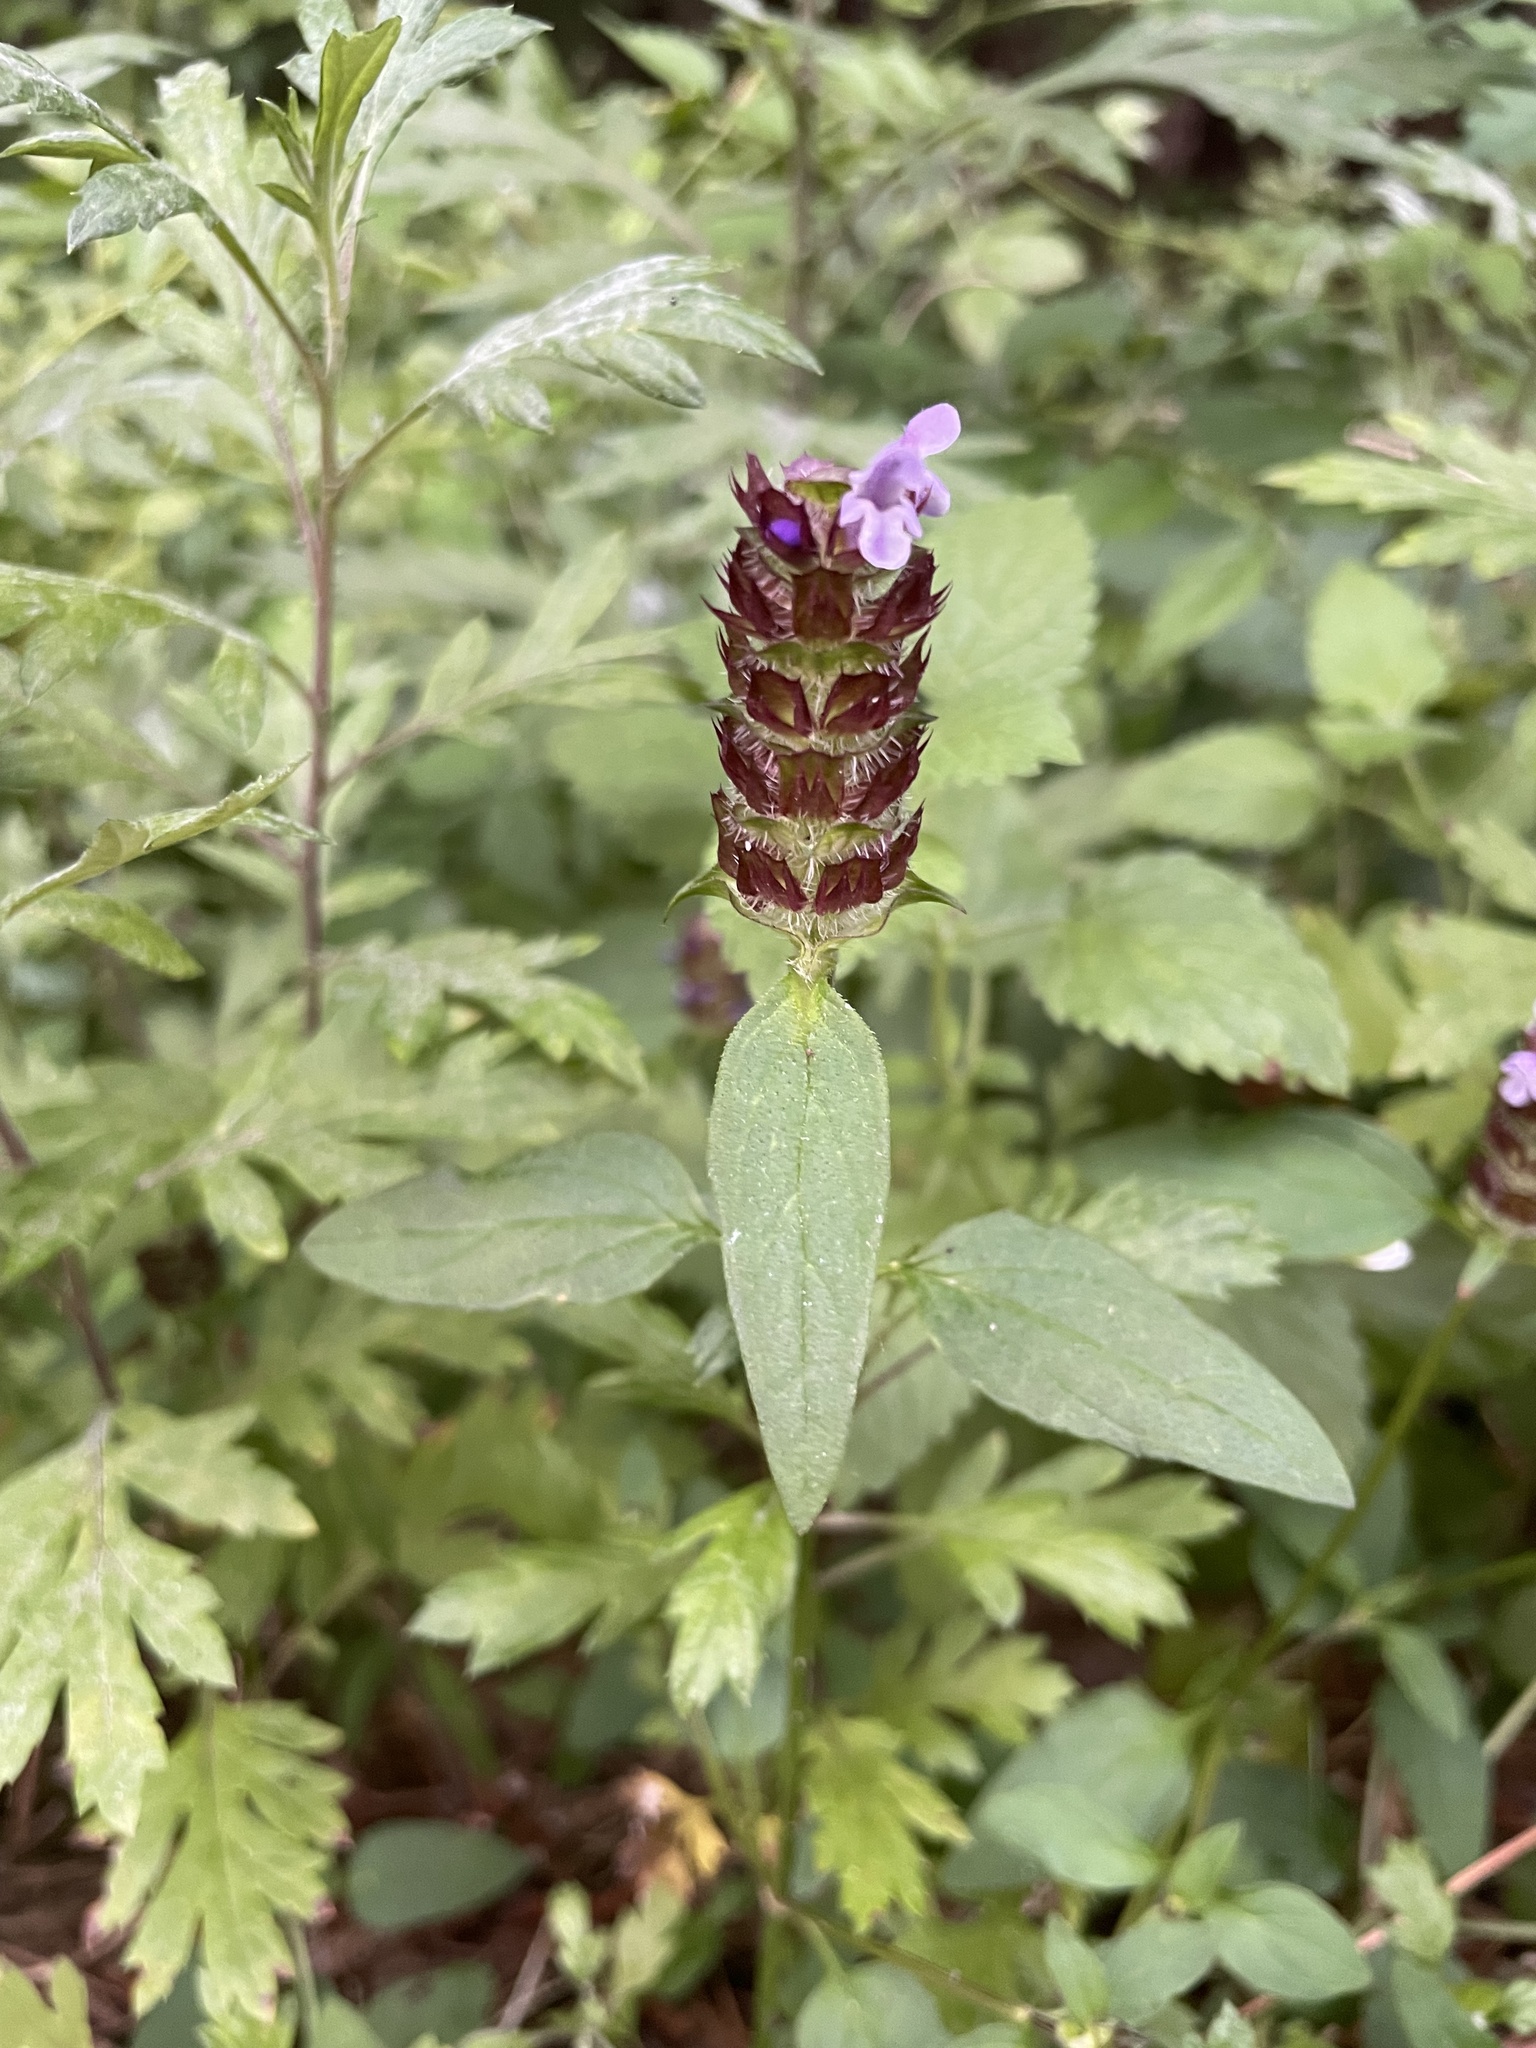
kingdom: Plantae
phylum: Tracheophyta
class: Magnoliopsida
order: Lamiales
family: Lamiaceae
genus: Prunella
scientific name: Prunella vulgaris
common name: Heal-all
